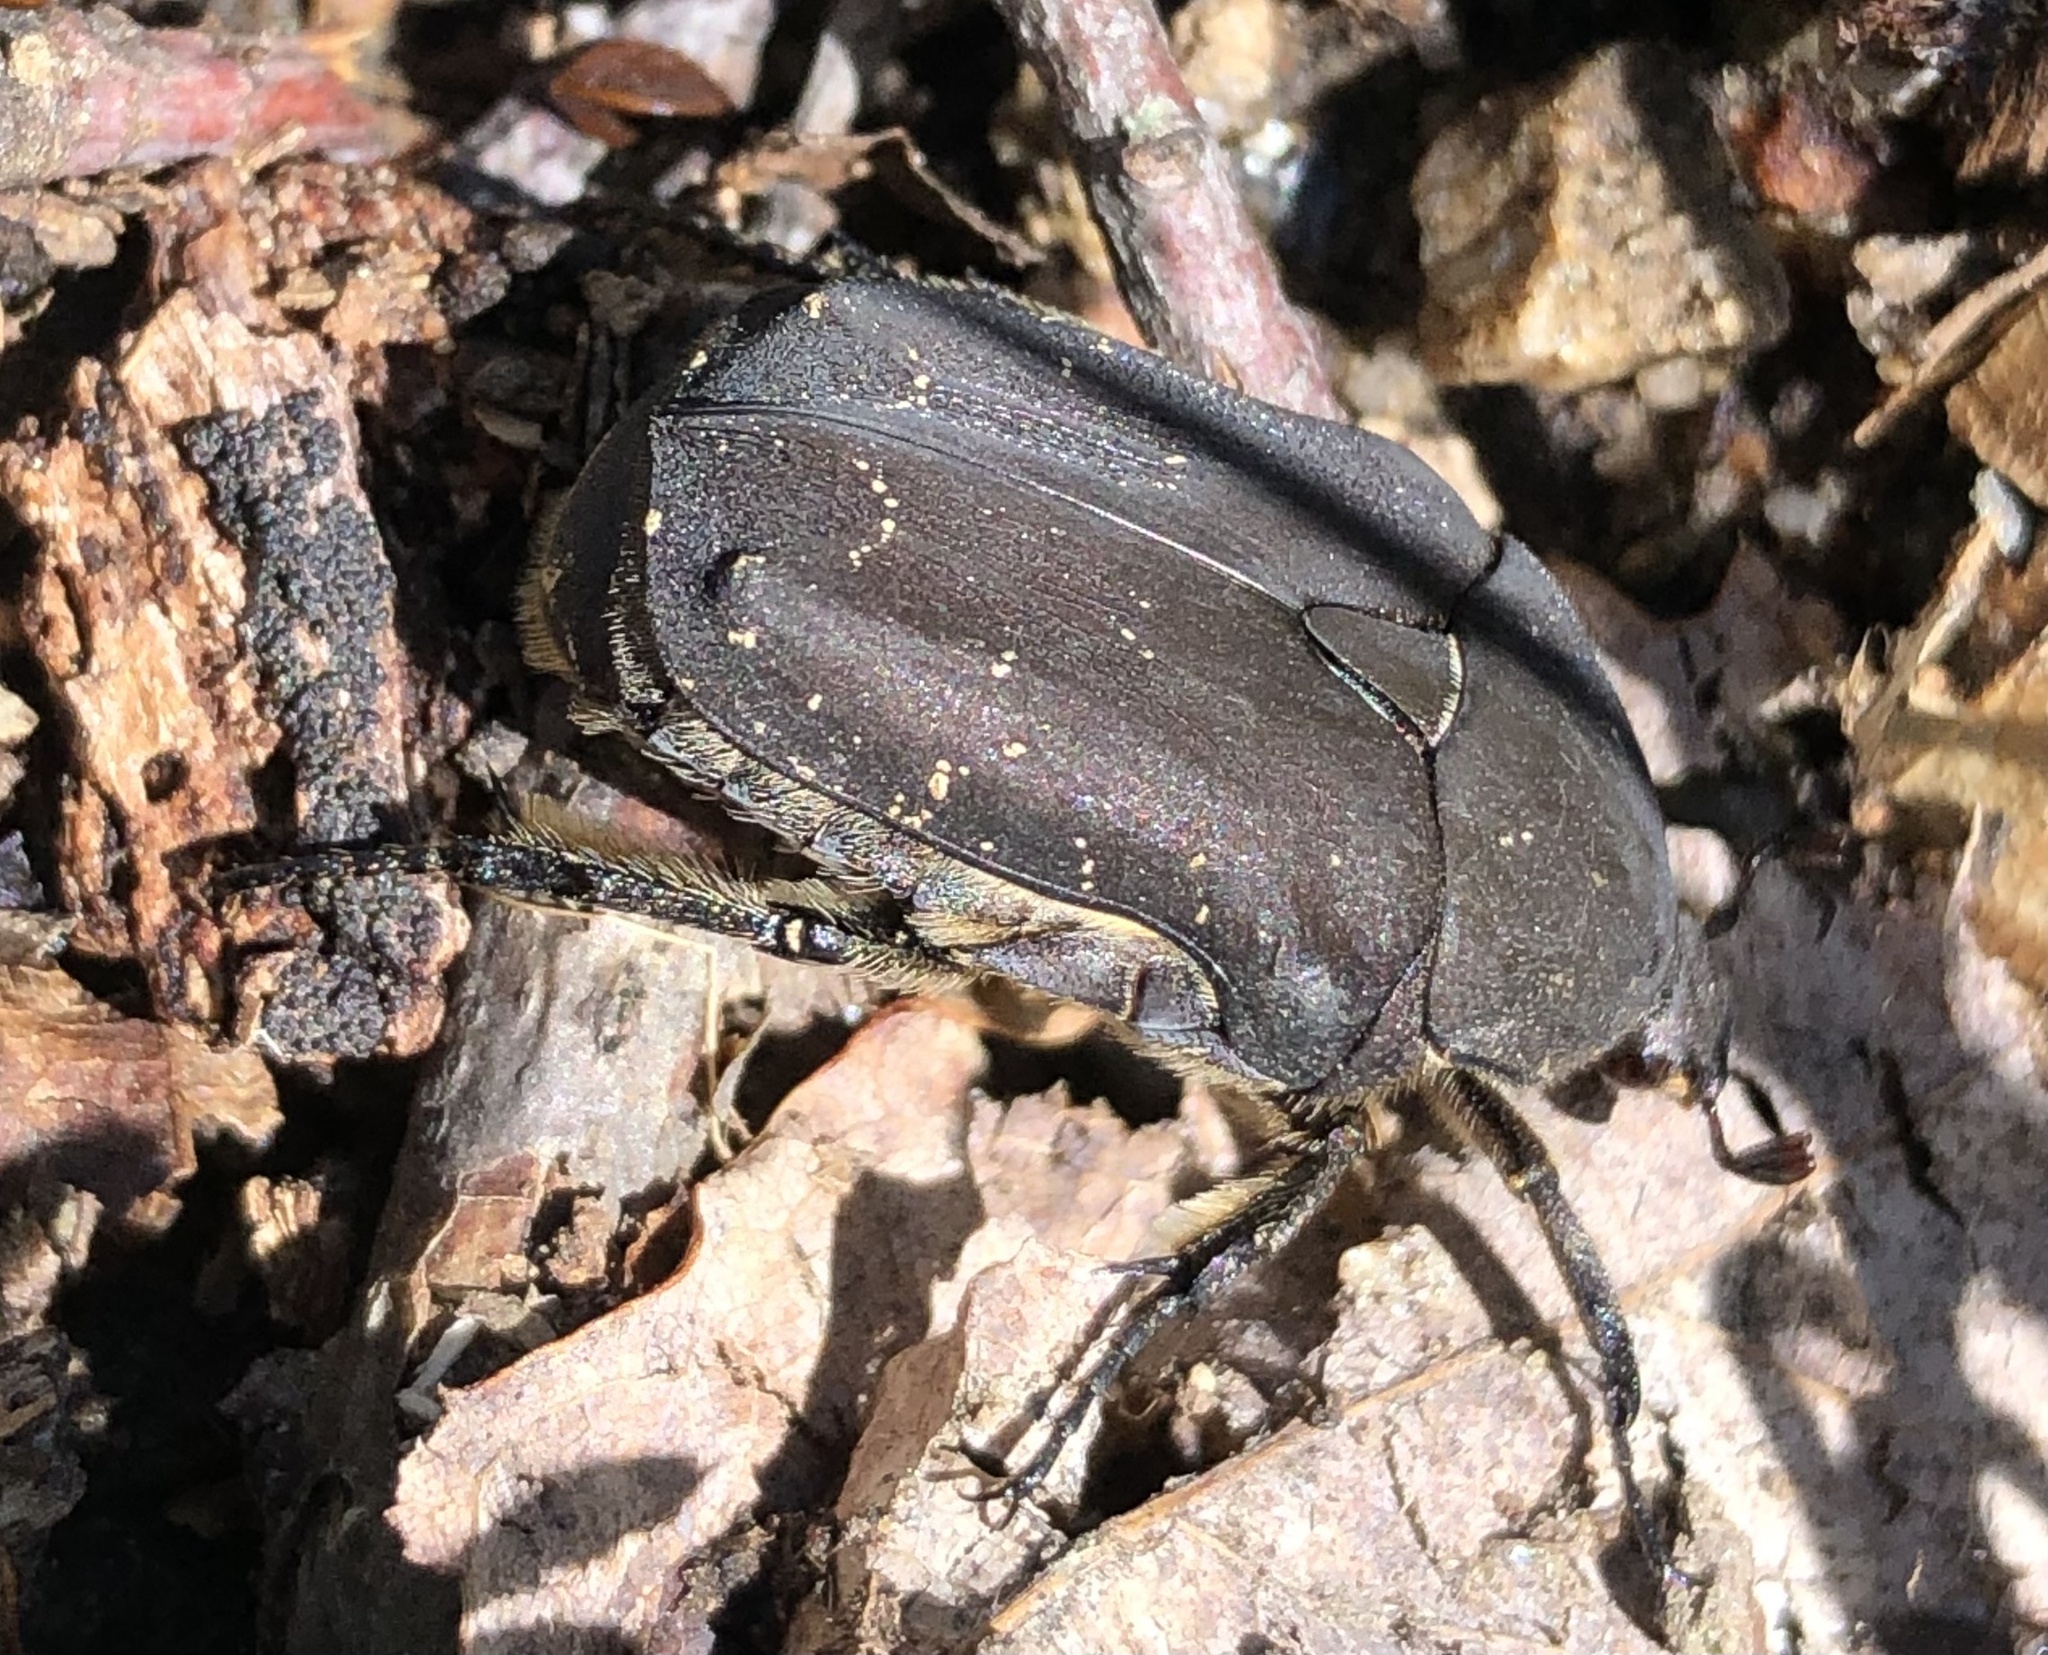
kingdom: Animalia
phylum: Arthropoda
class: Insecta
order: Coleoptera
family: Scarabaeidae
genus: Protaetia
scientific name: Protaetia morio
